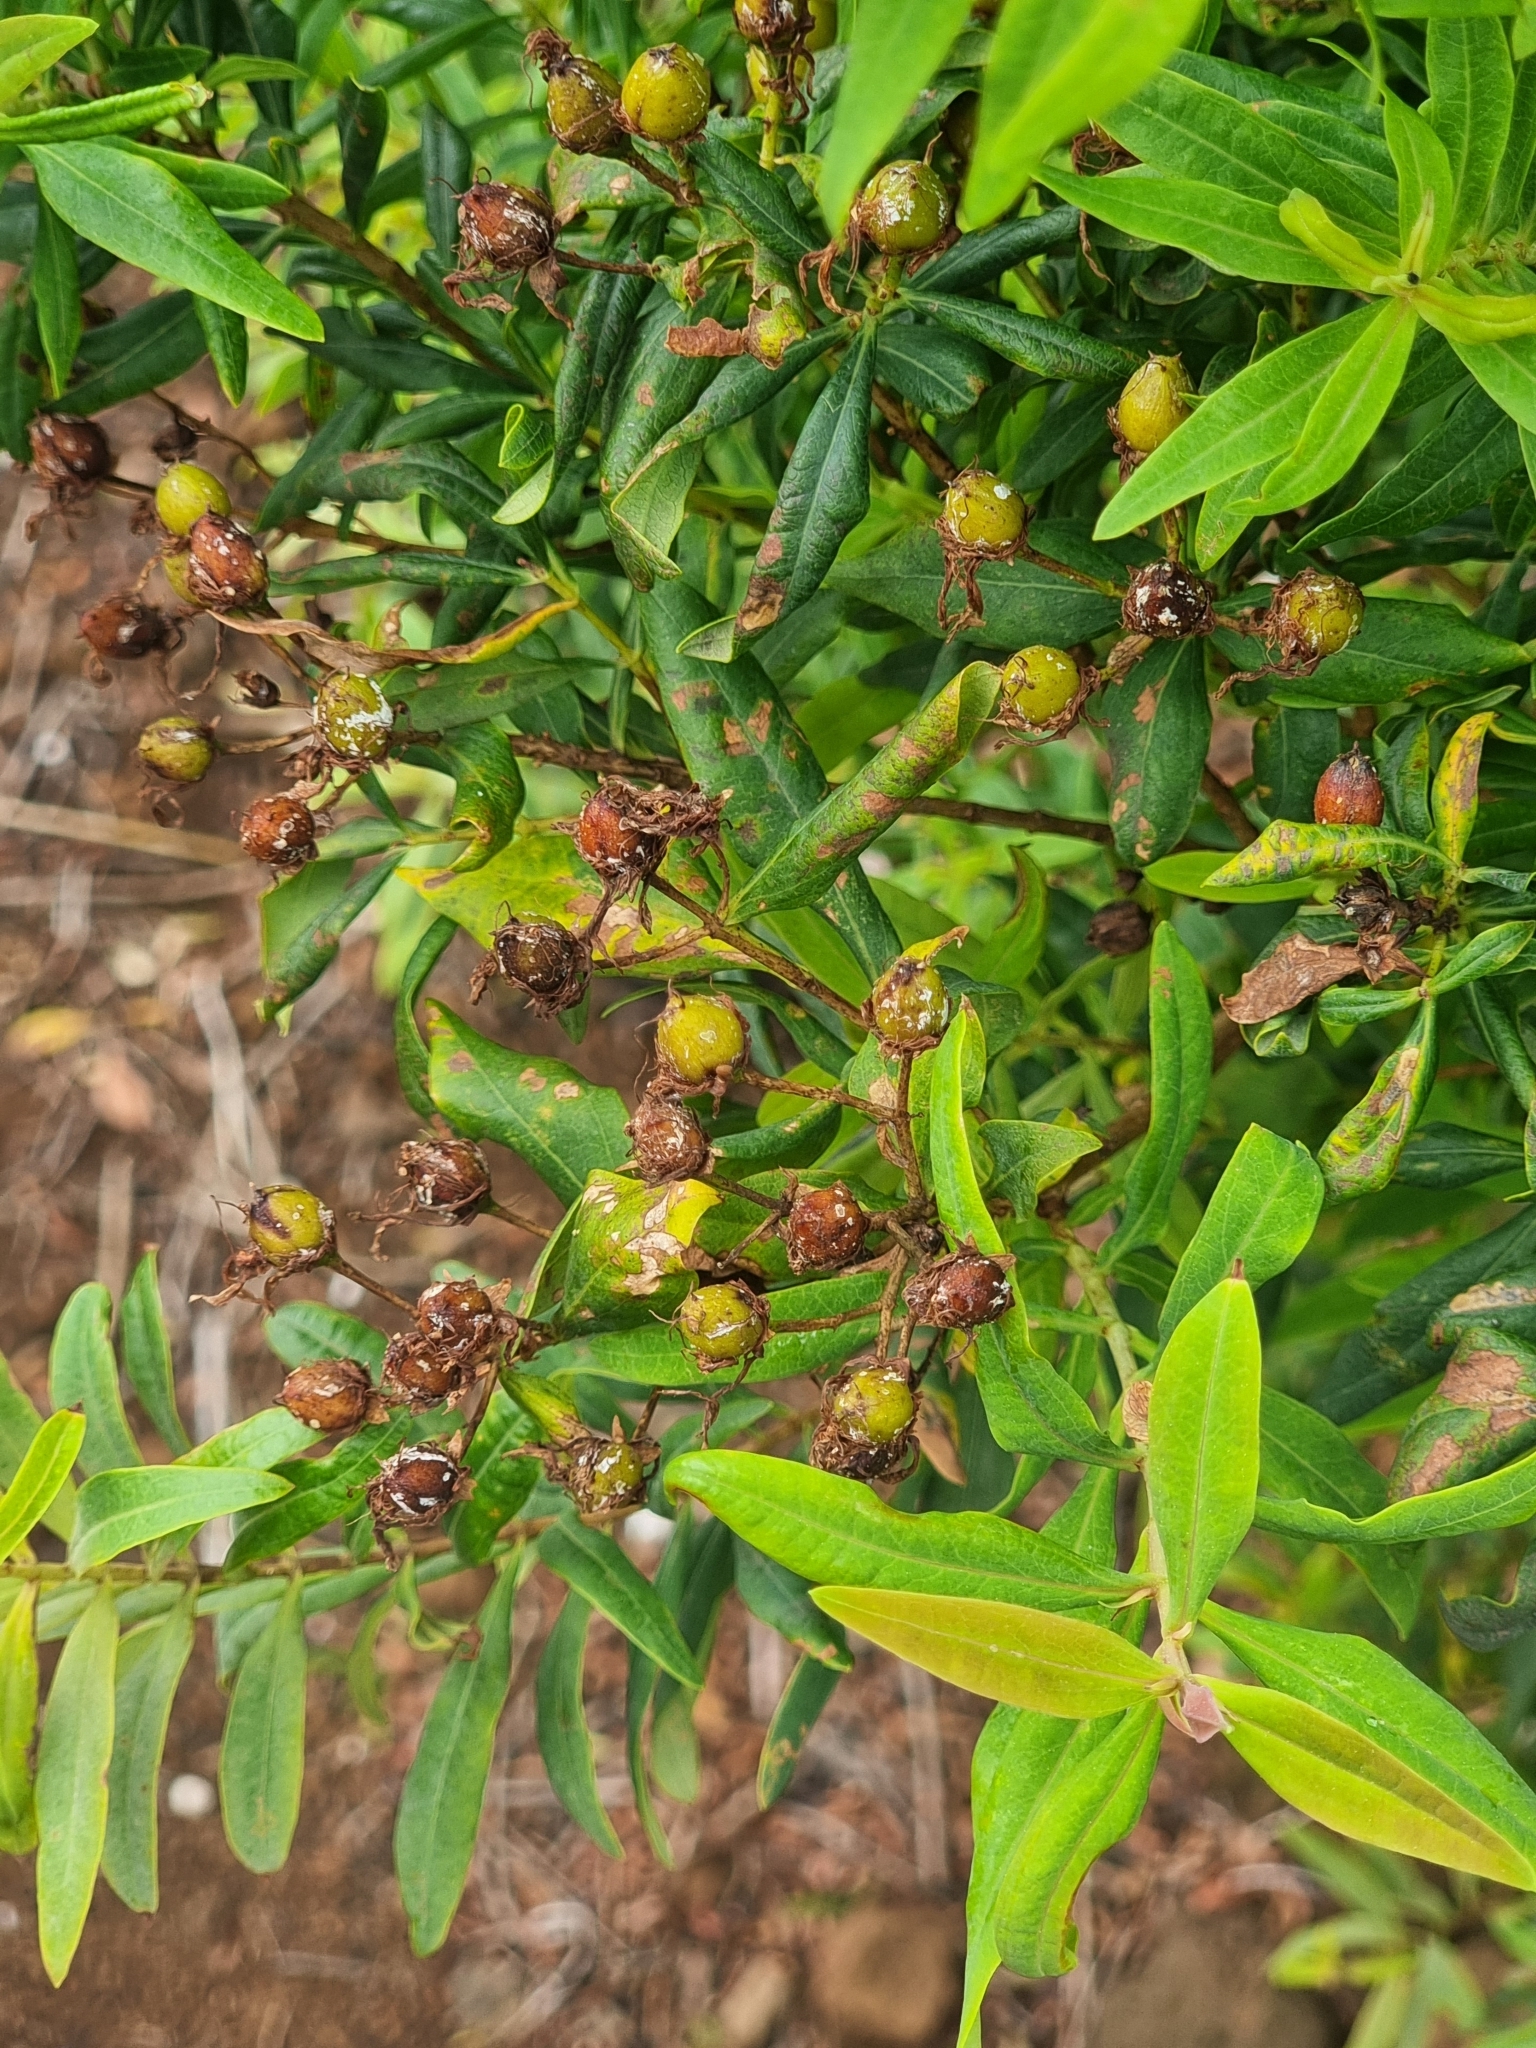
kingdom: Plantae
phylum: Tracheophyta
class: Magnoliopsida
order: Malpighiales
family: Hypericaceae
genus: Hypericum
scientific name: Hypericum canariense
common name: Canary island st. johnswort
